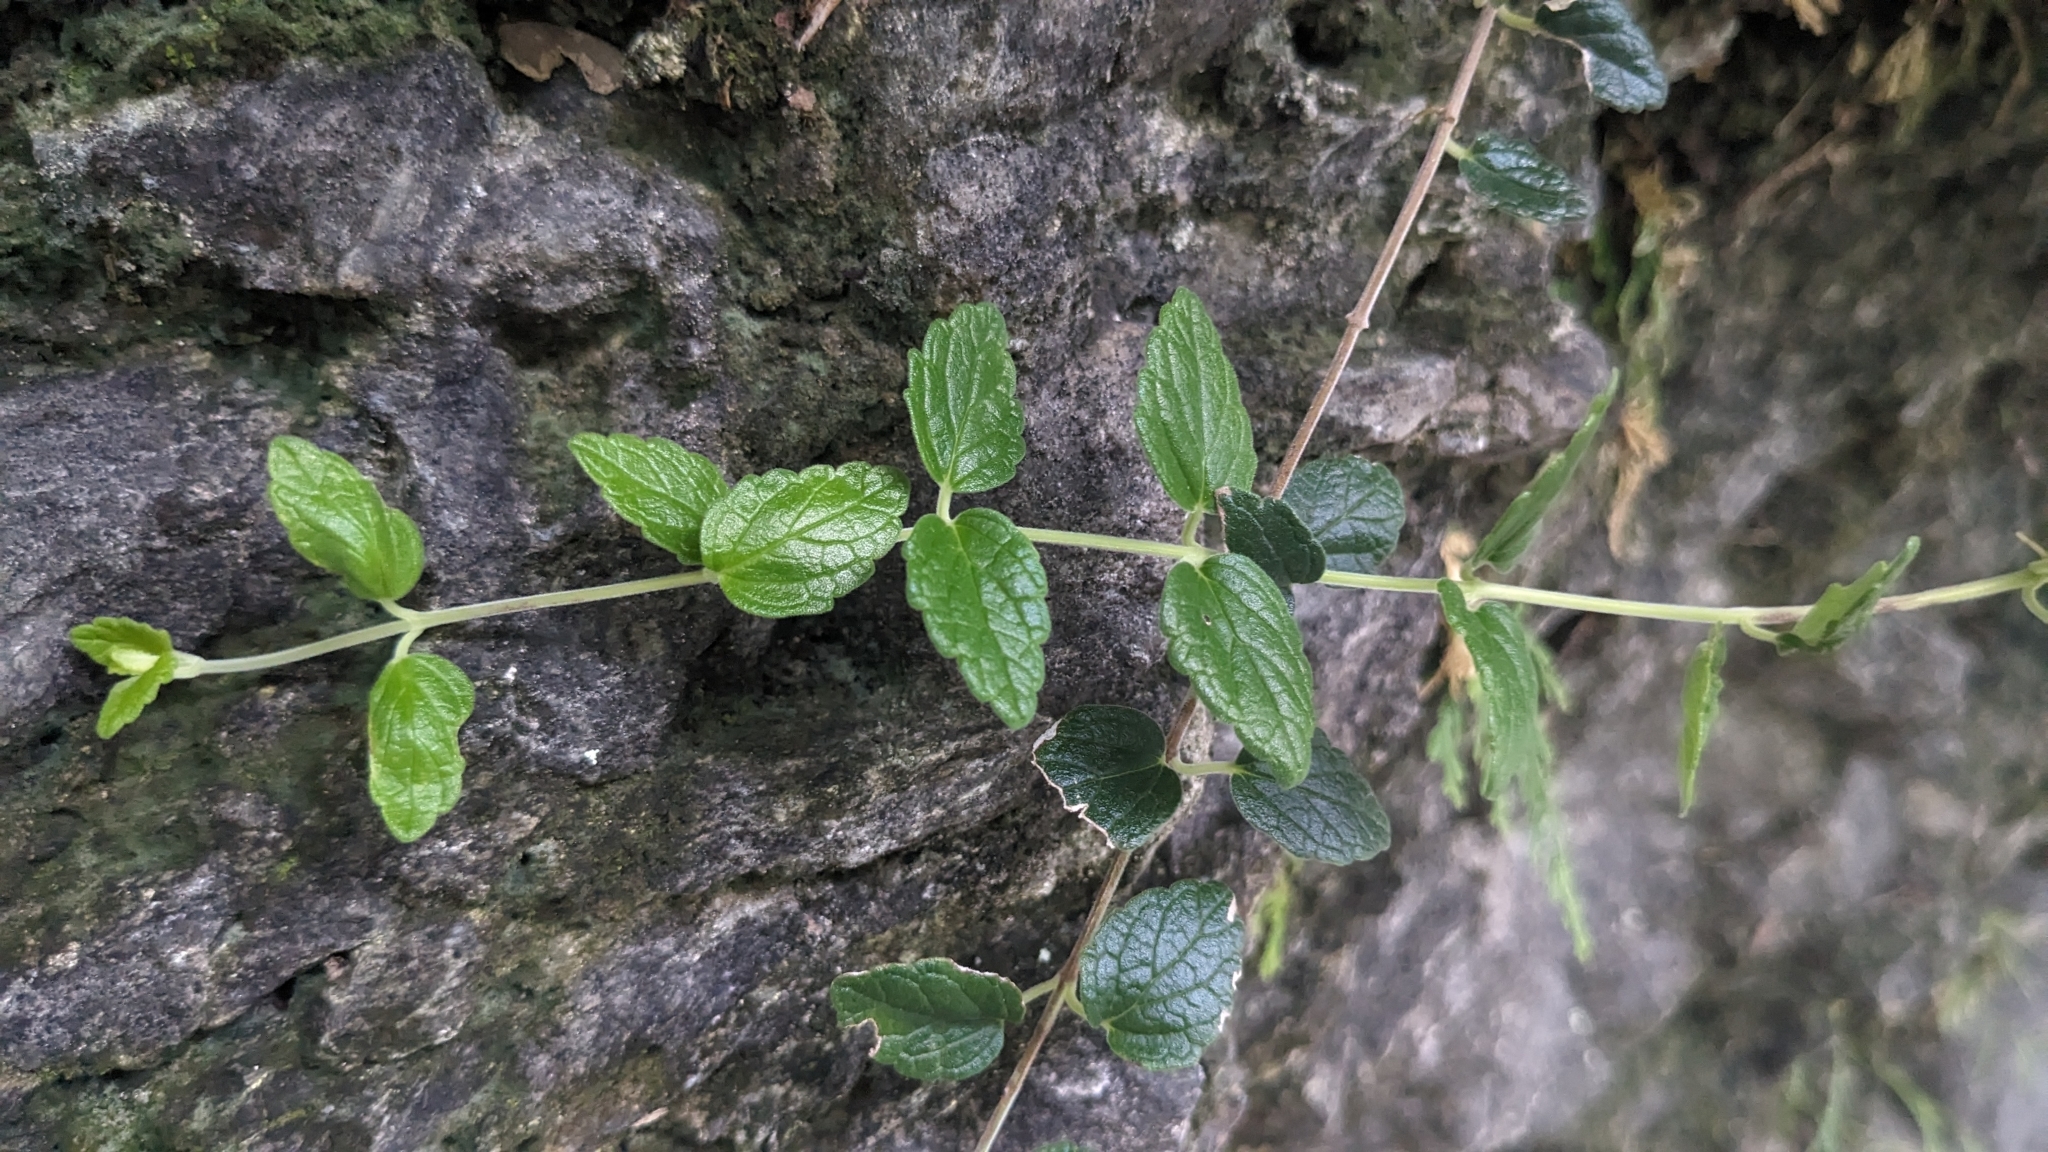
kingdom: Plantae
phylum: Tracheophyta
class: Magnoliopsida
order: Lamiales
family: Lamiaceae
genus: Scutellaria
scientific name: Scutellaria indica
